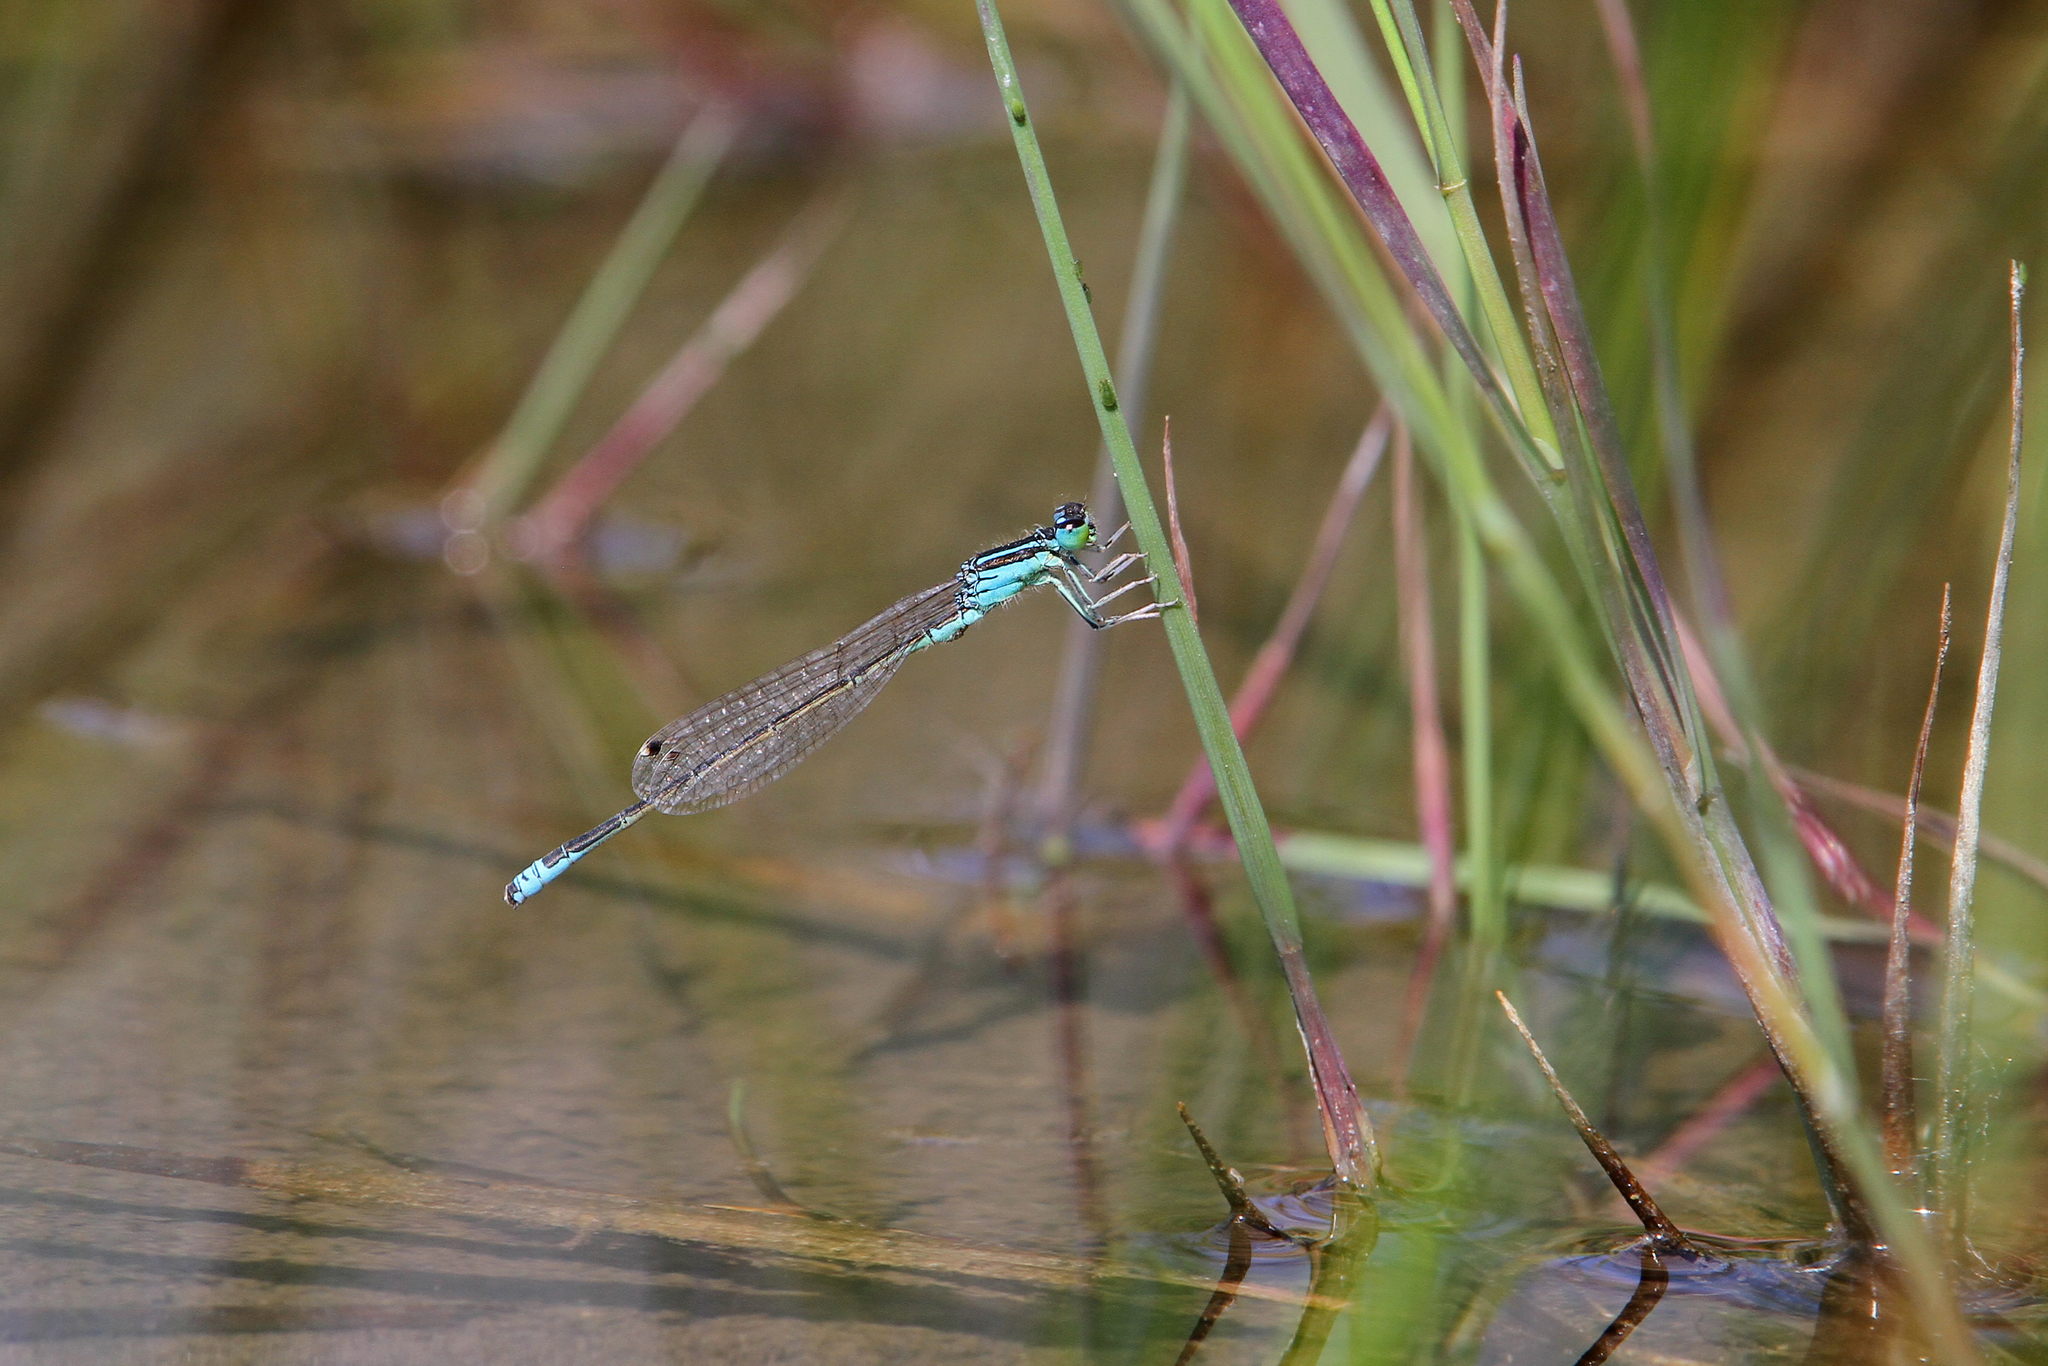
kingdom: Animalia
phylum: Arthropoda
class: Insecta
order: Odonata
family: Coenagrionidae
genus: Ischnura
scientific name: Ischnura pumilio
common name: Scarce blue-tailed damselfly
